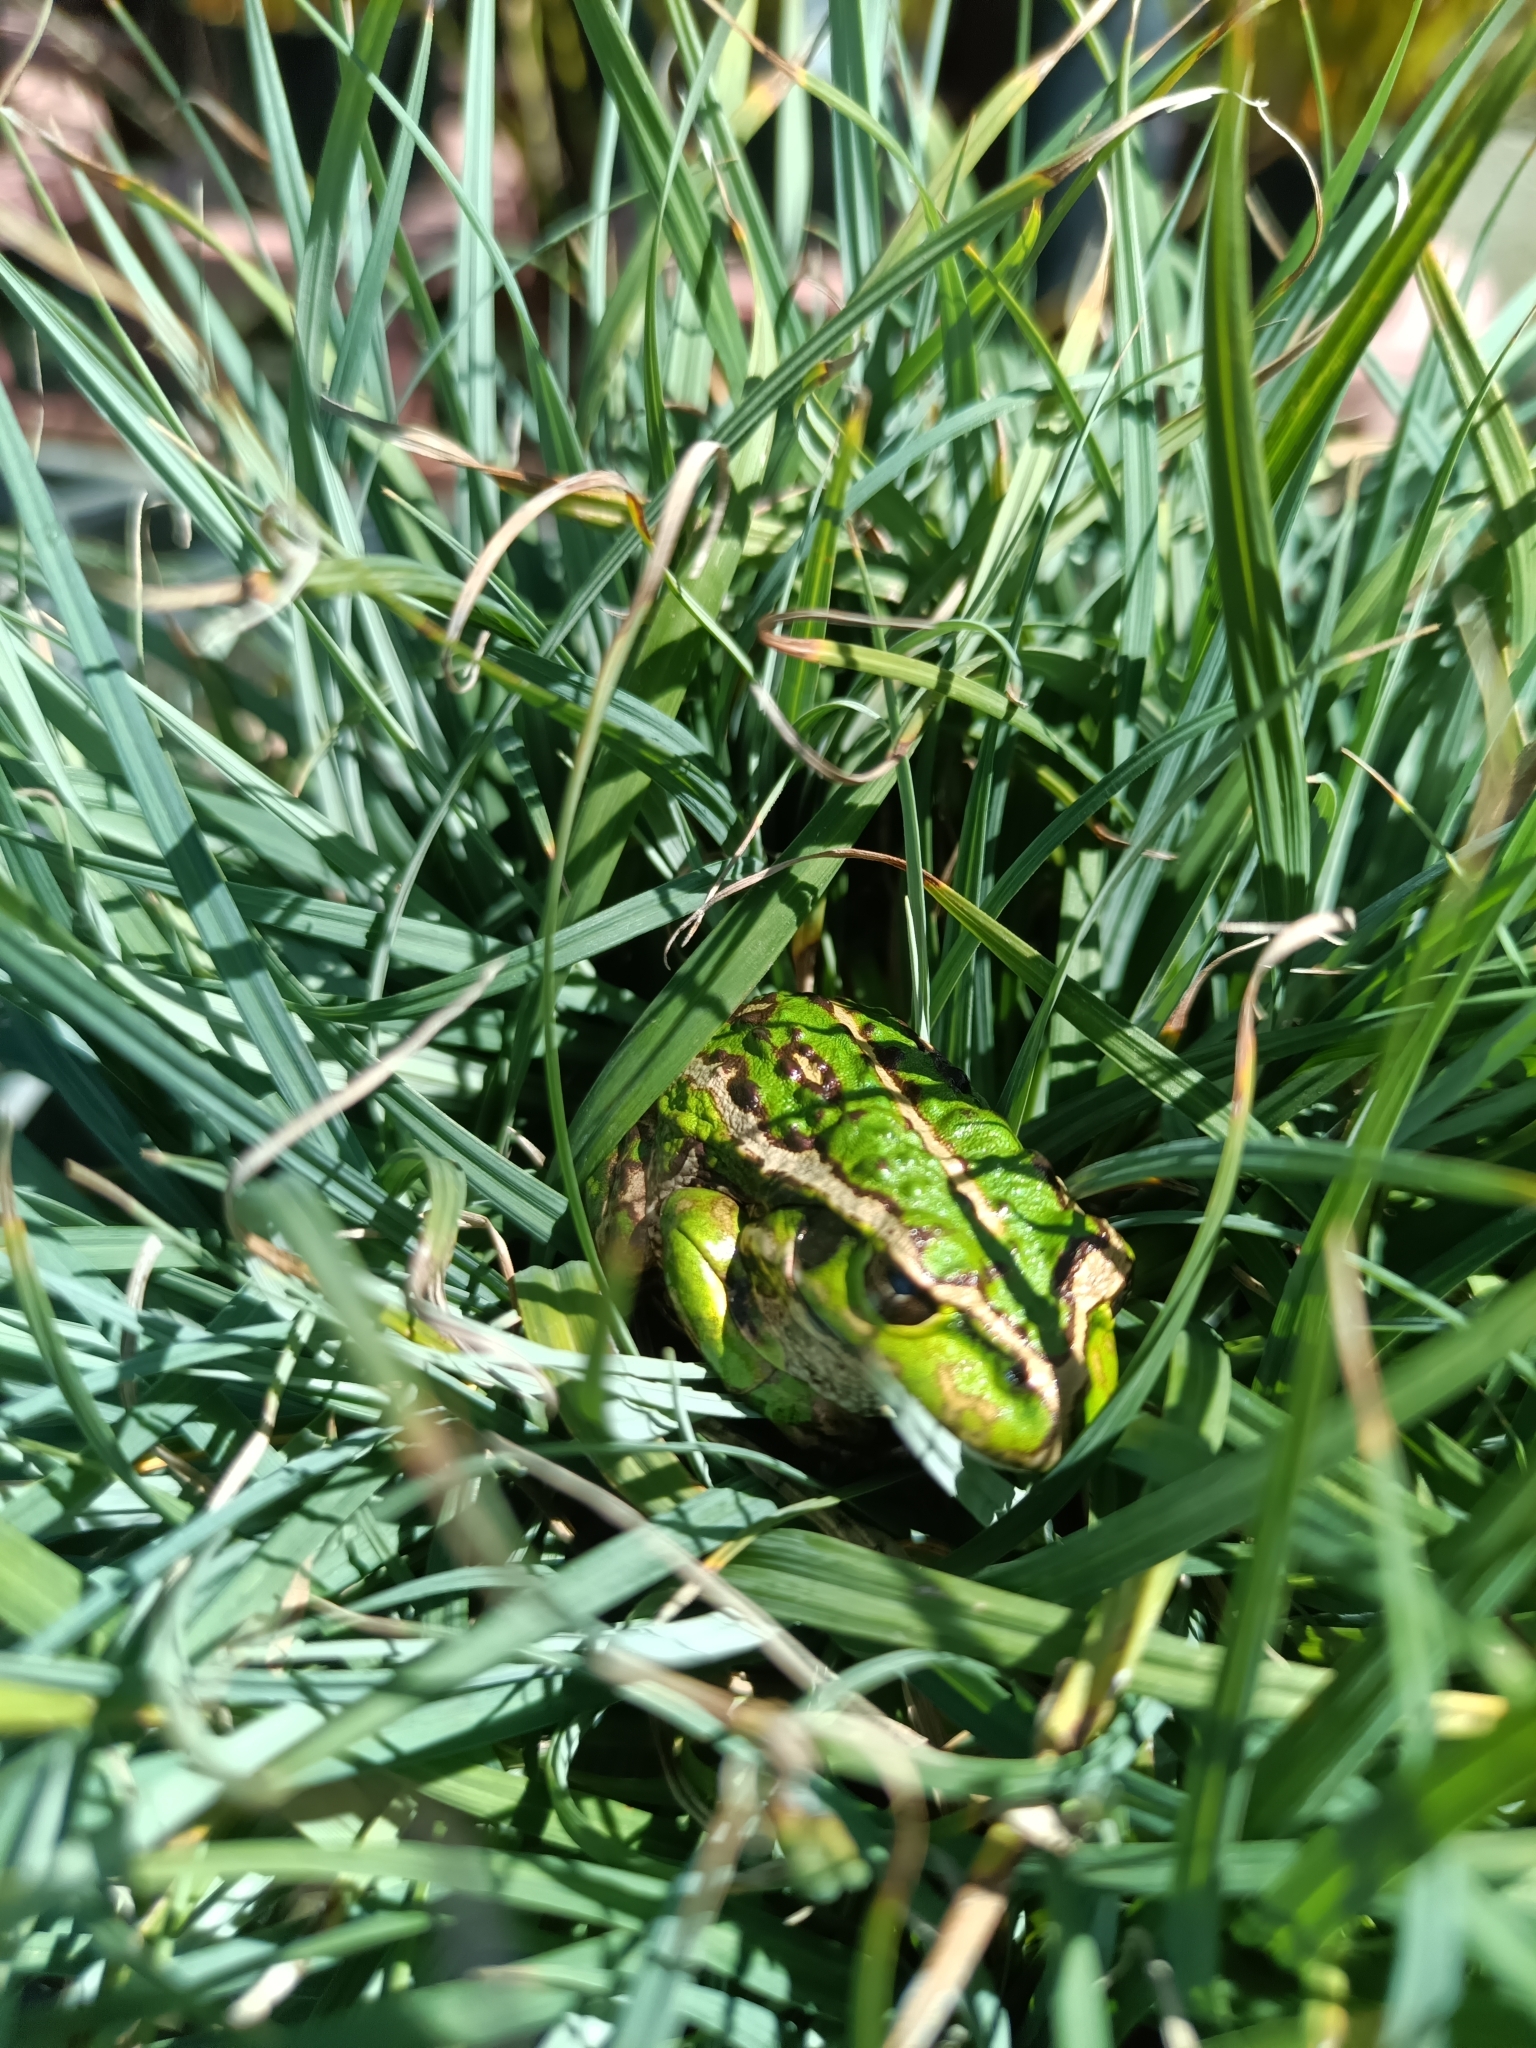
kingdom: Animalia
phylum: Chordata
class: Amphibia
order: Anura
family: Pelodryadidae
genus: Ranoidea
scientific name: Ranoidea moorei
